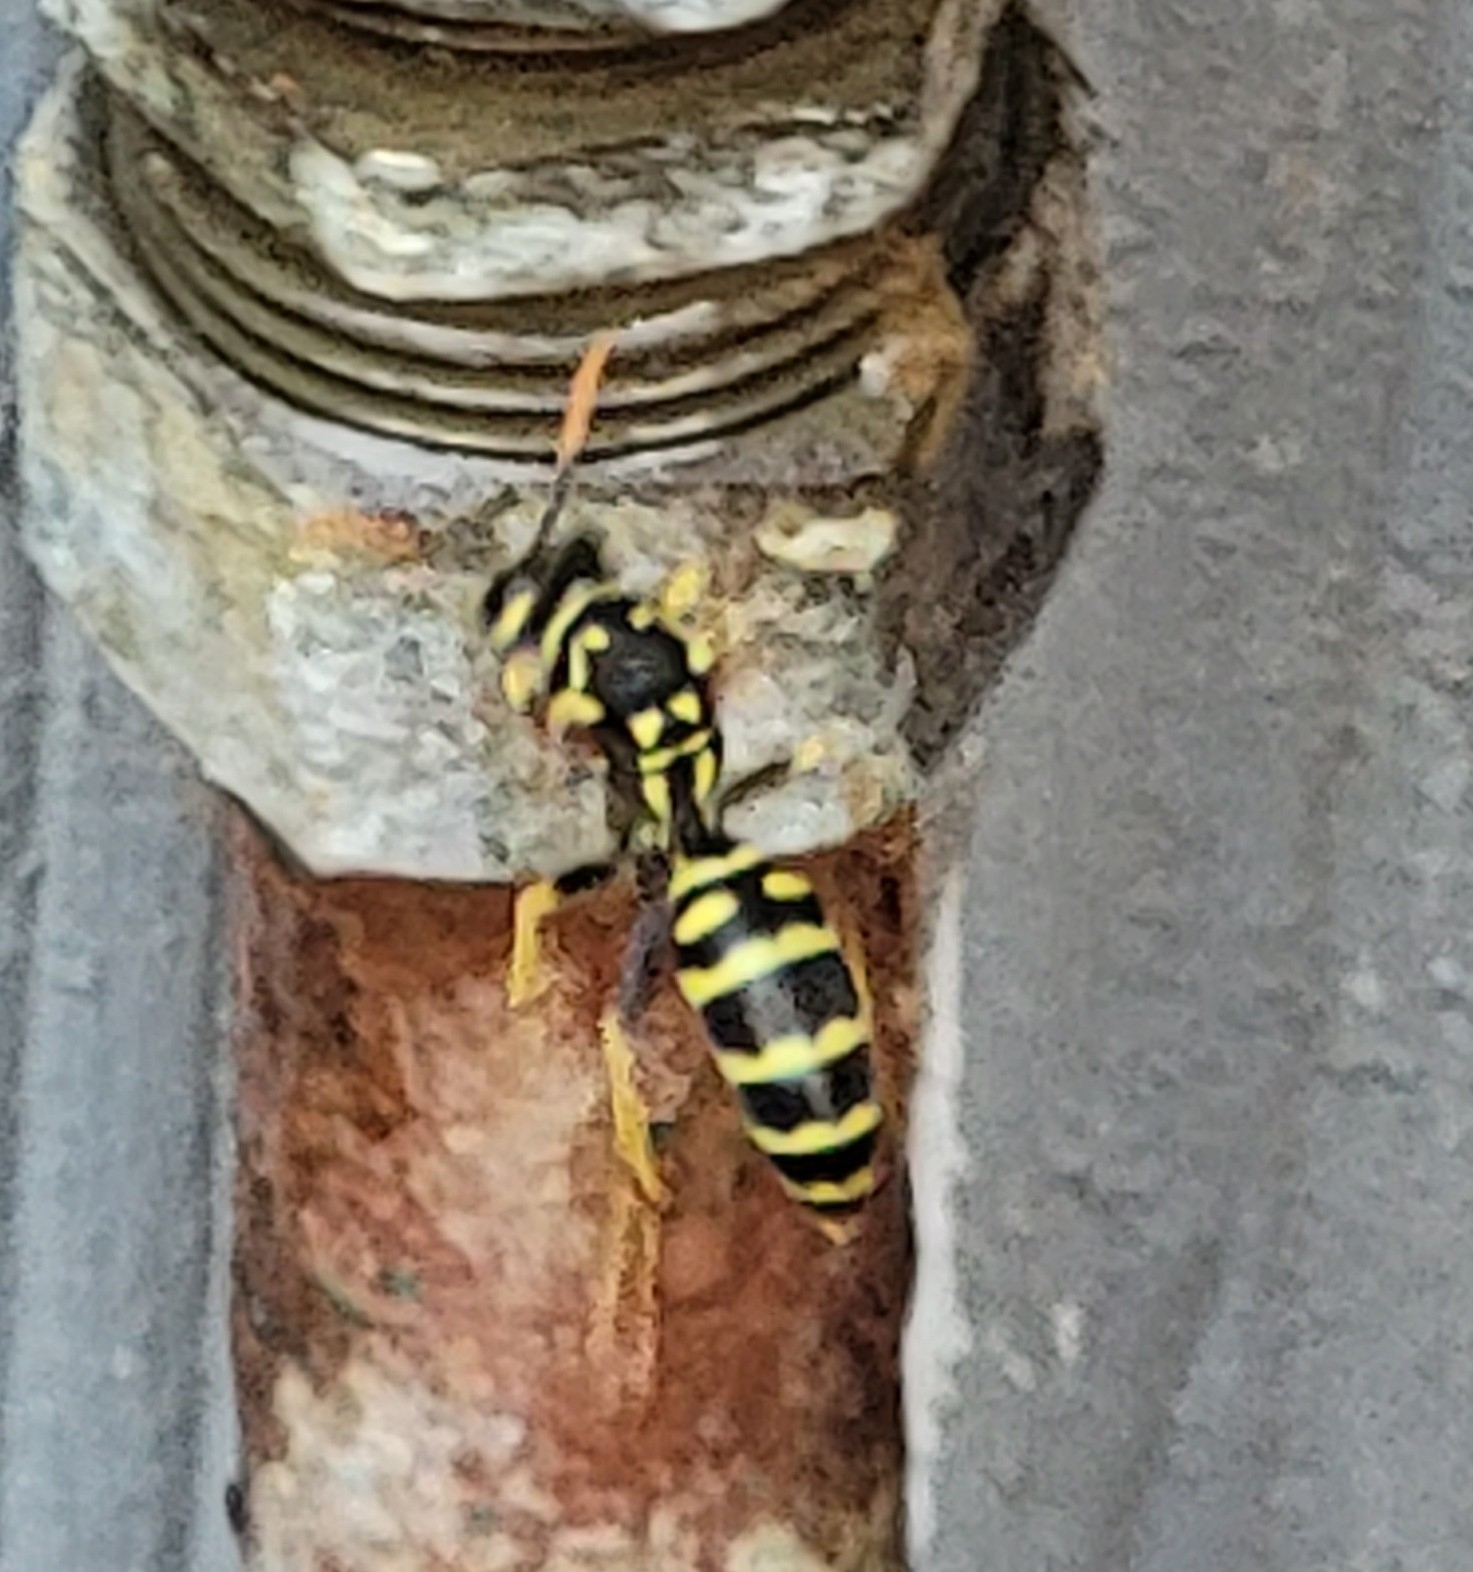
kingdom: Animalia
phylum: Arthropoda
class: Insecta
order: Hymenoptera
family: Eumenidae
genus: Polistes
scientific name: Polistes dominula
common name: Paper wasp
